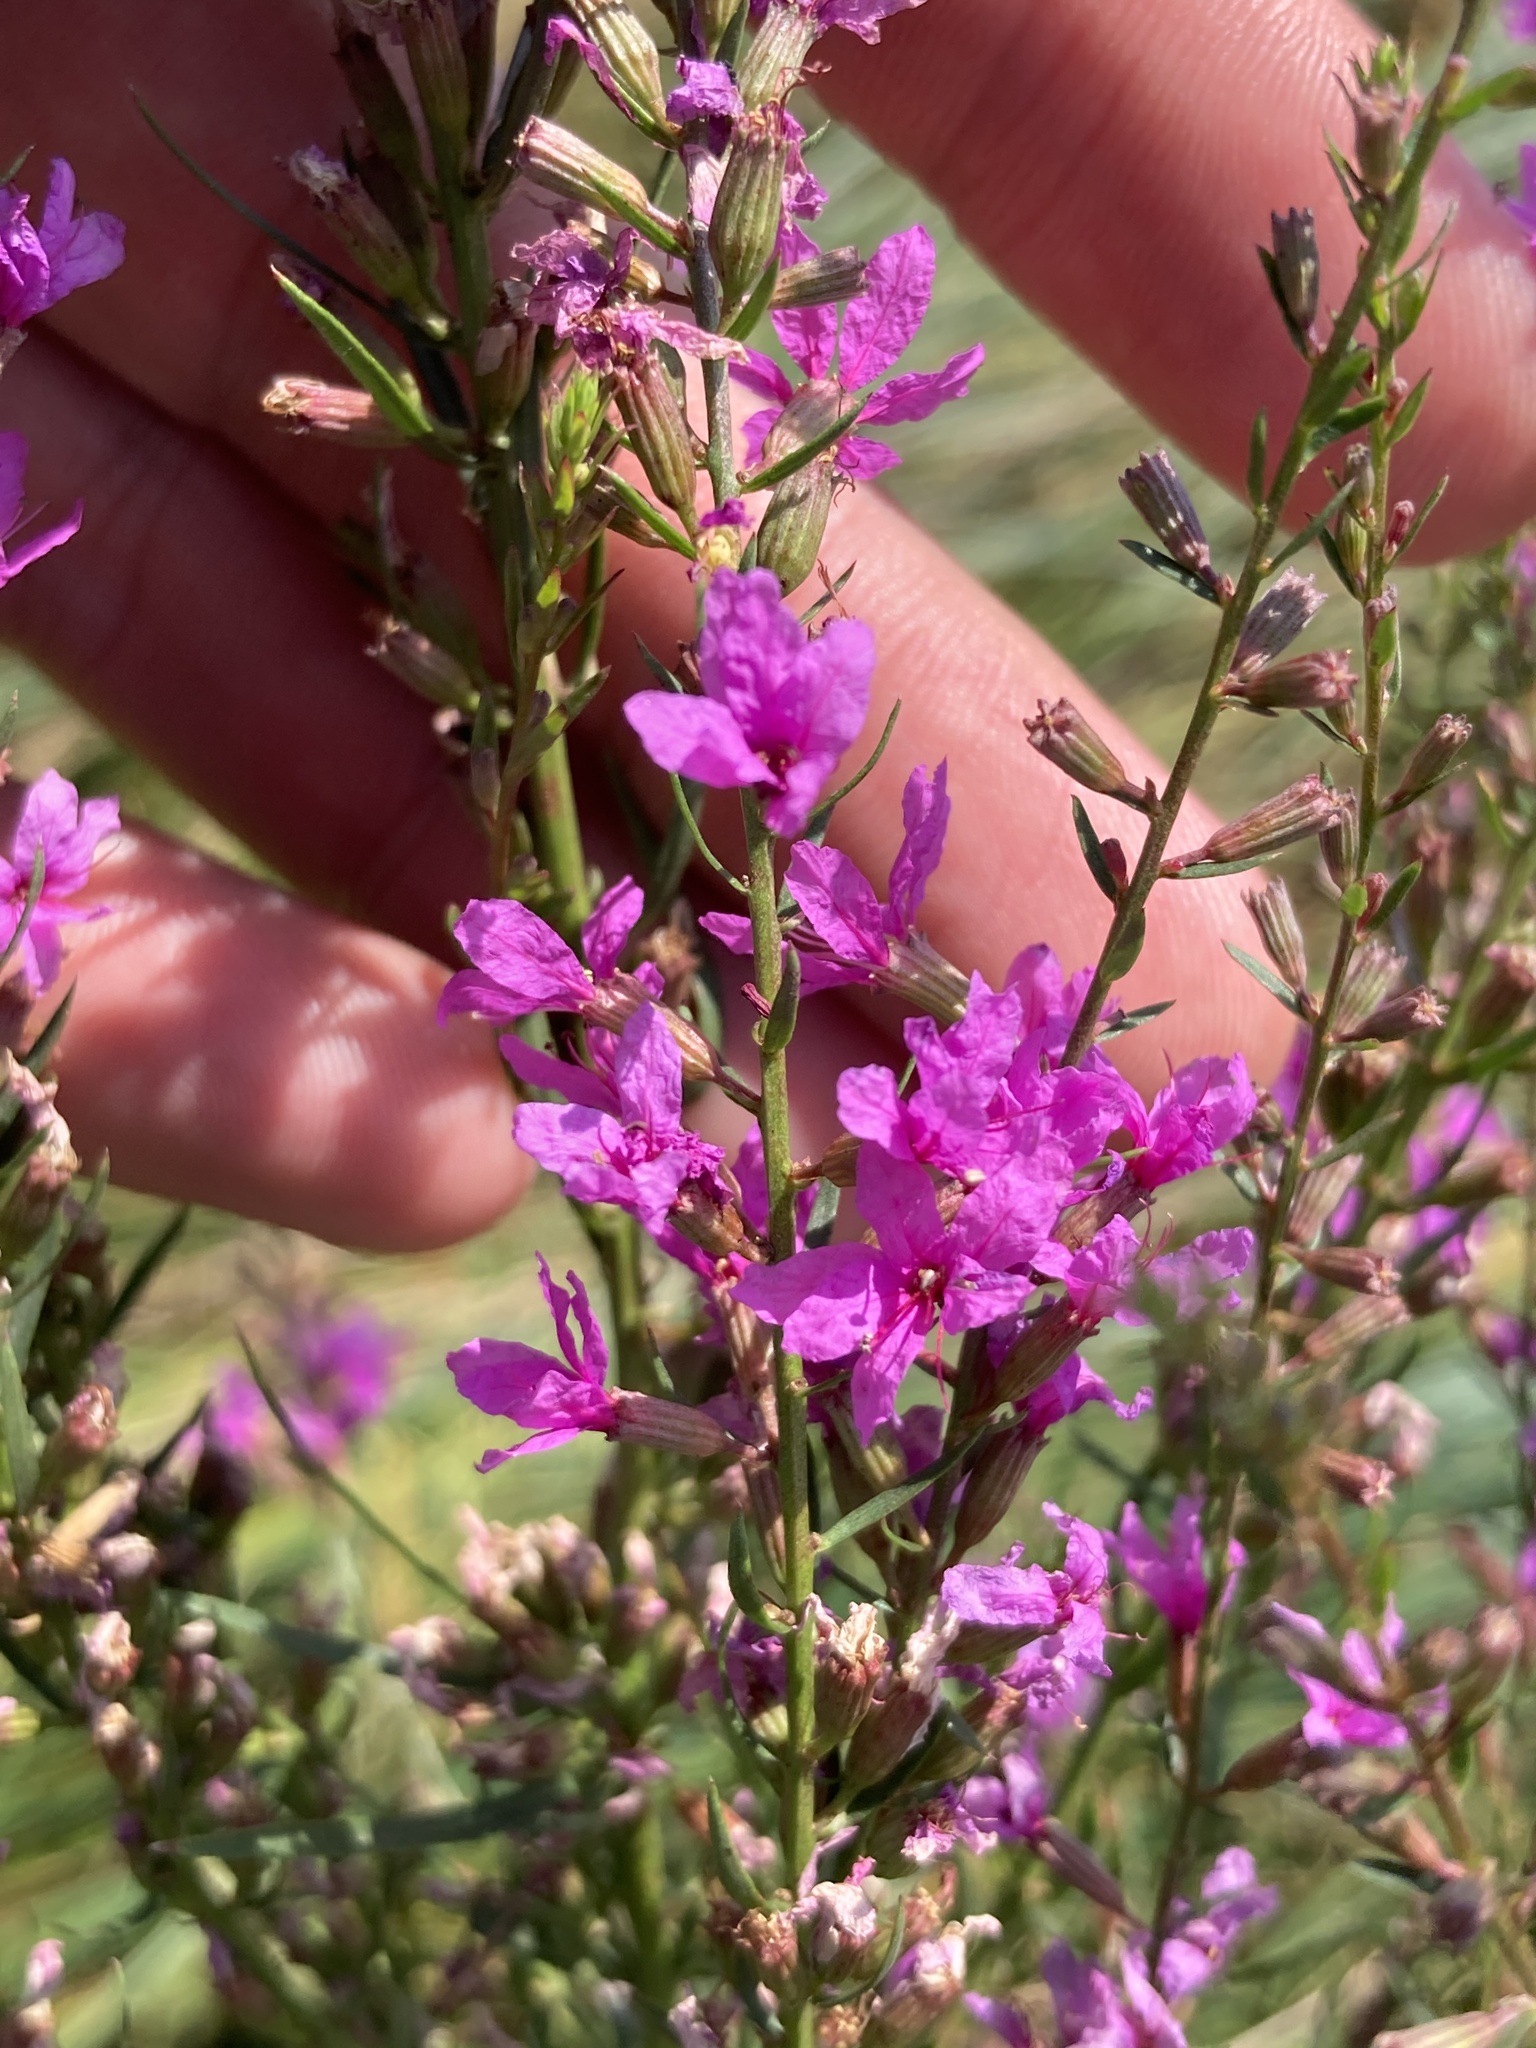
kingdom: Plantae
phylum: Tracheophyta
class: Magnoliopsida
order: Myrtales
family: Lythraceae
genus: Lythrum
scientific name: Lythrum virgatum
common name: European wand loosestrife
